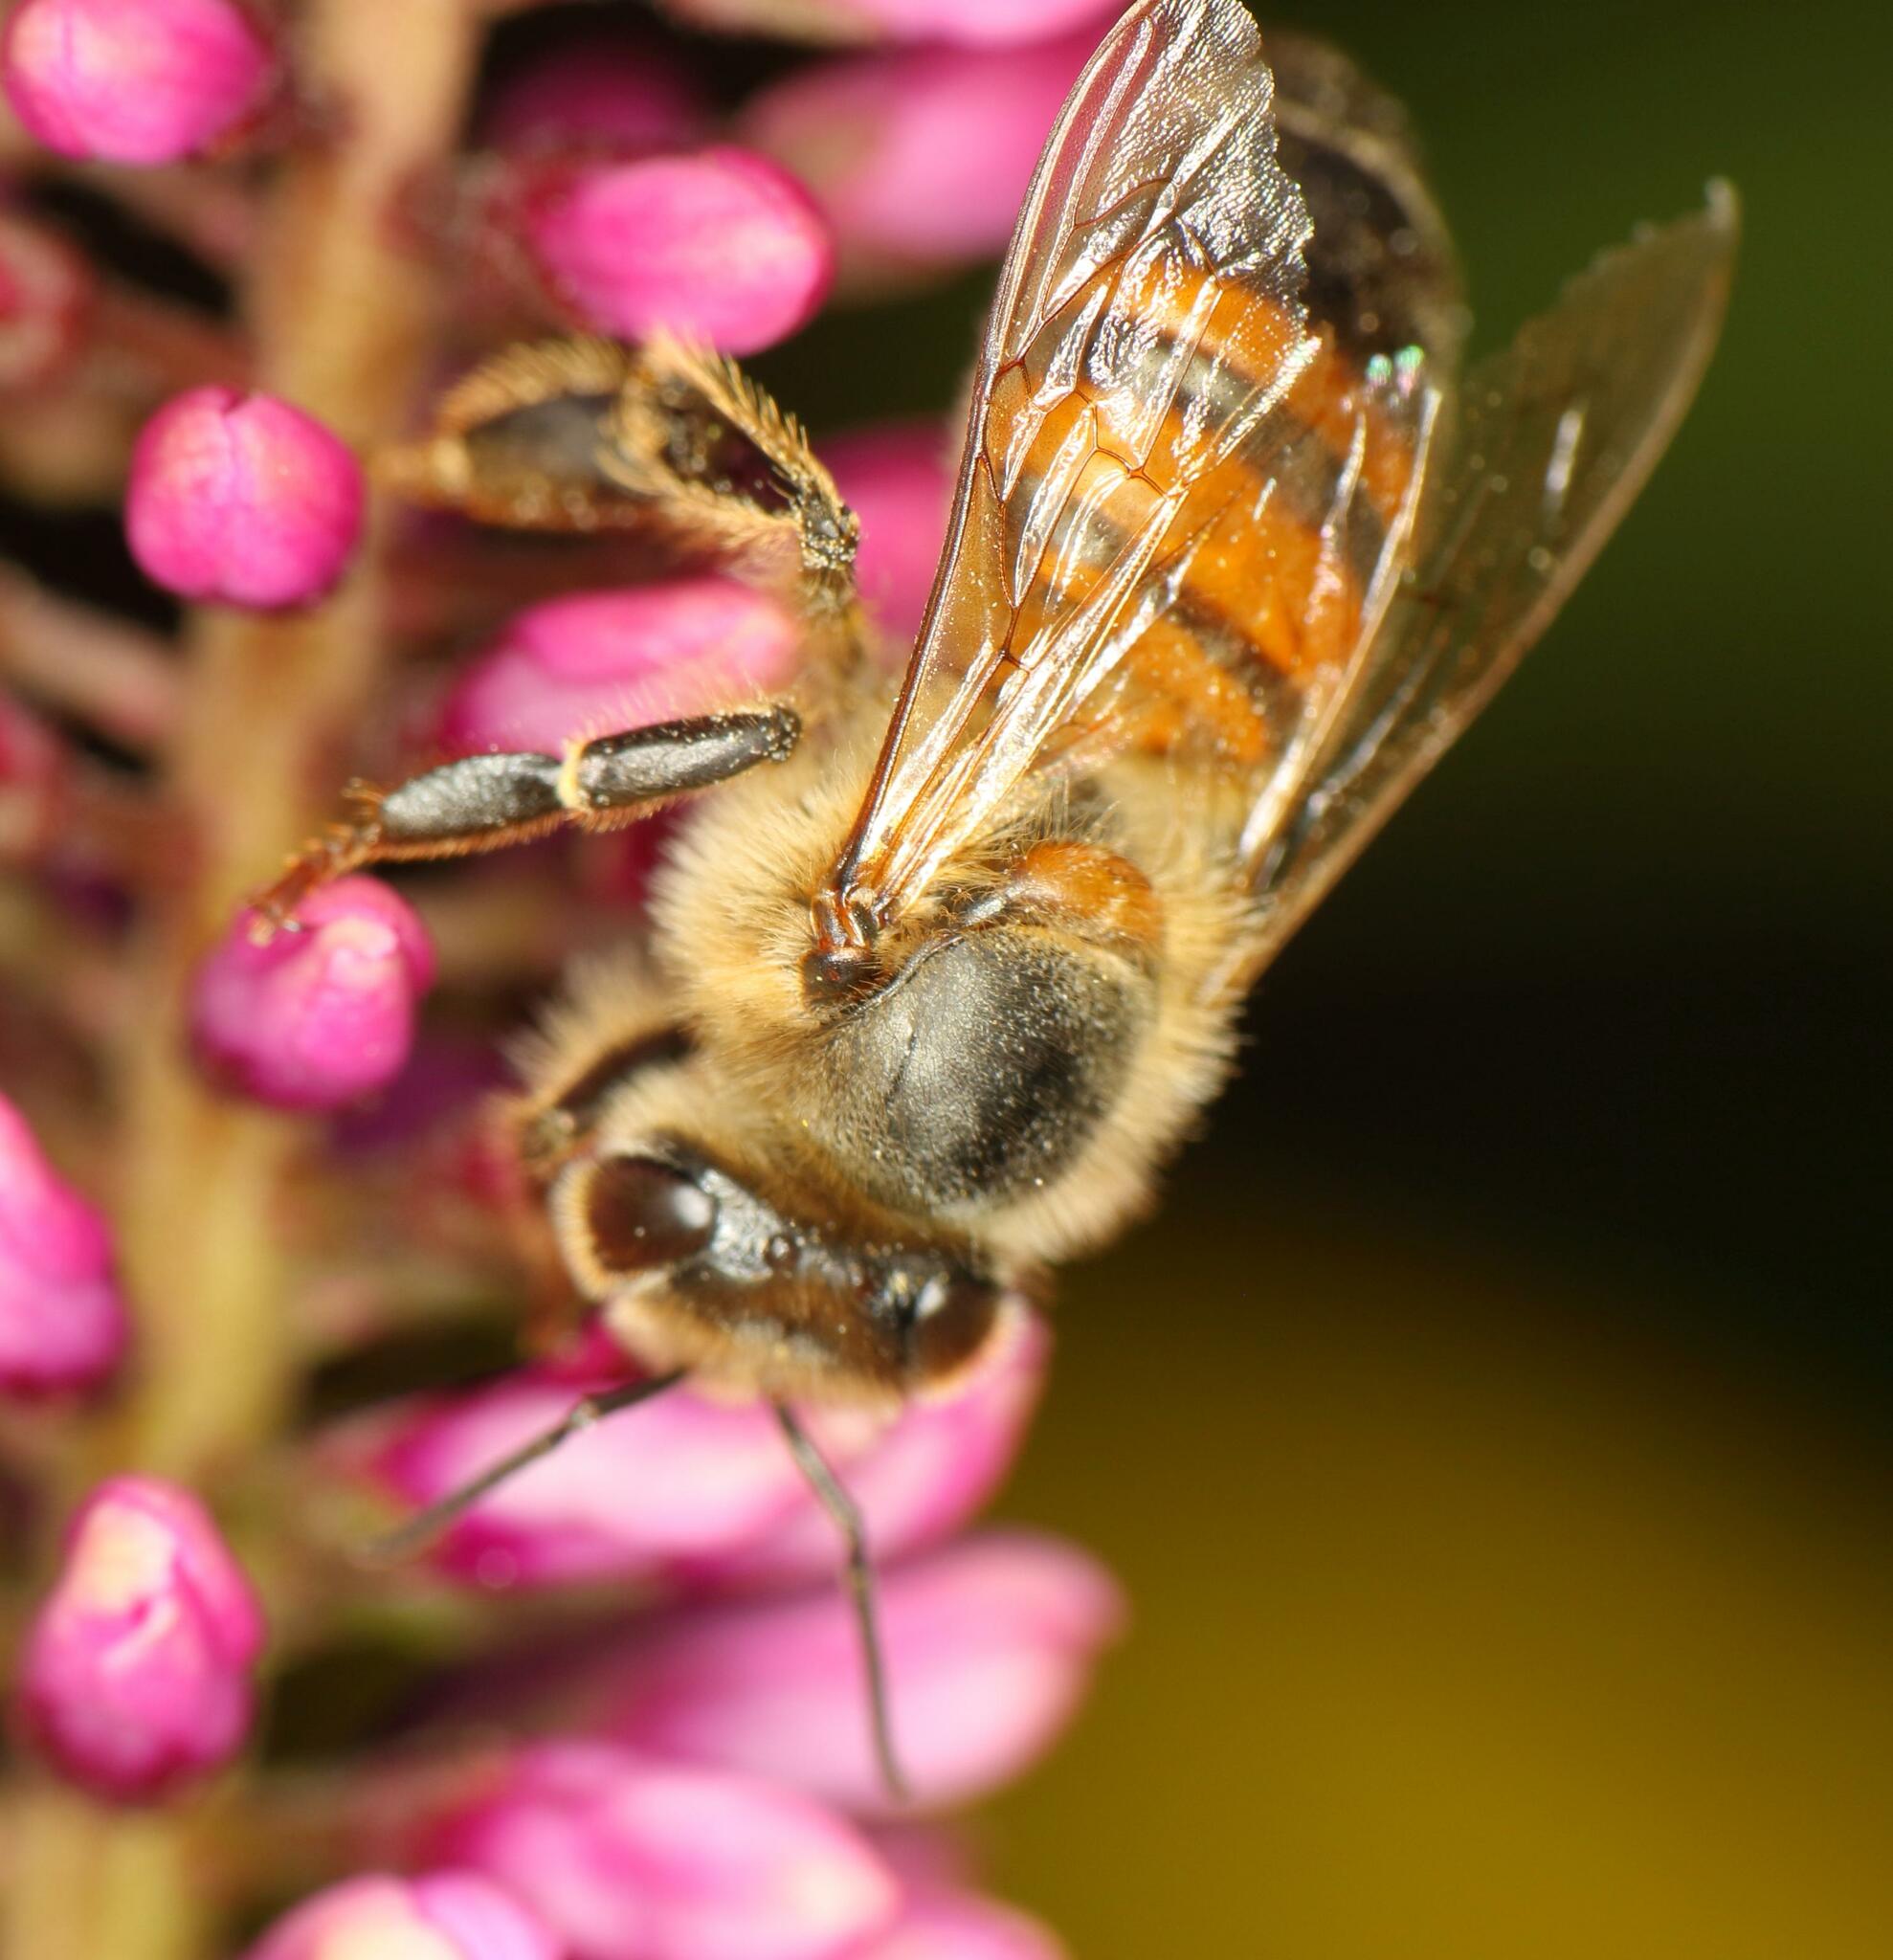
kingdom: Animalia
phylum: Arthropoda
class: Insecta
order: Hymenoptera
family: Apidae
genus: Apis
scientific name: Apis mellifera
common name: Honey bee
